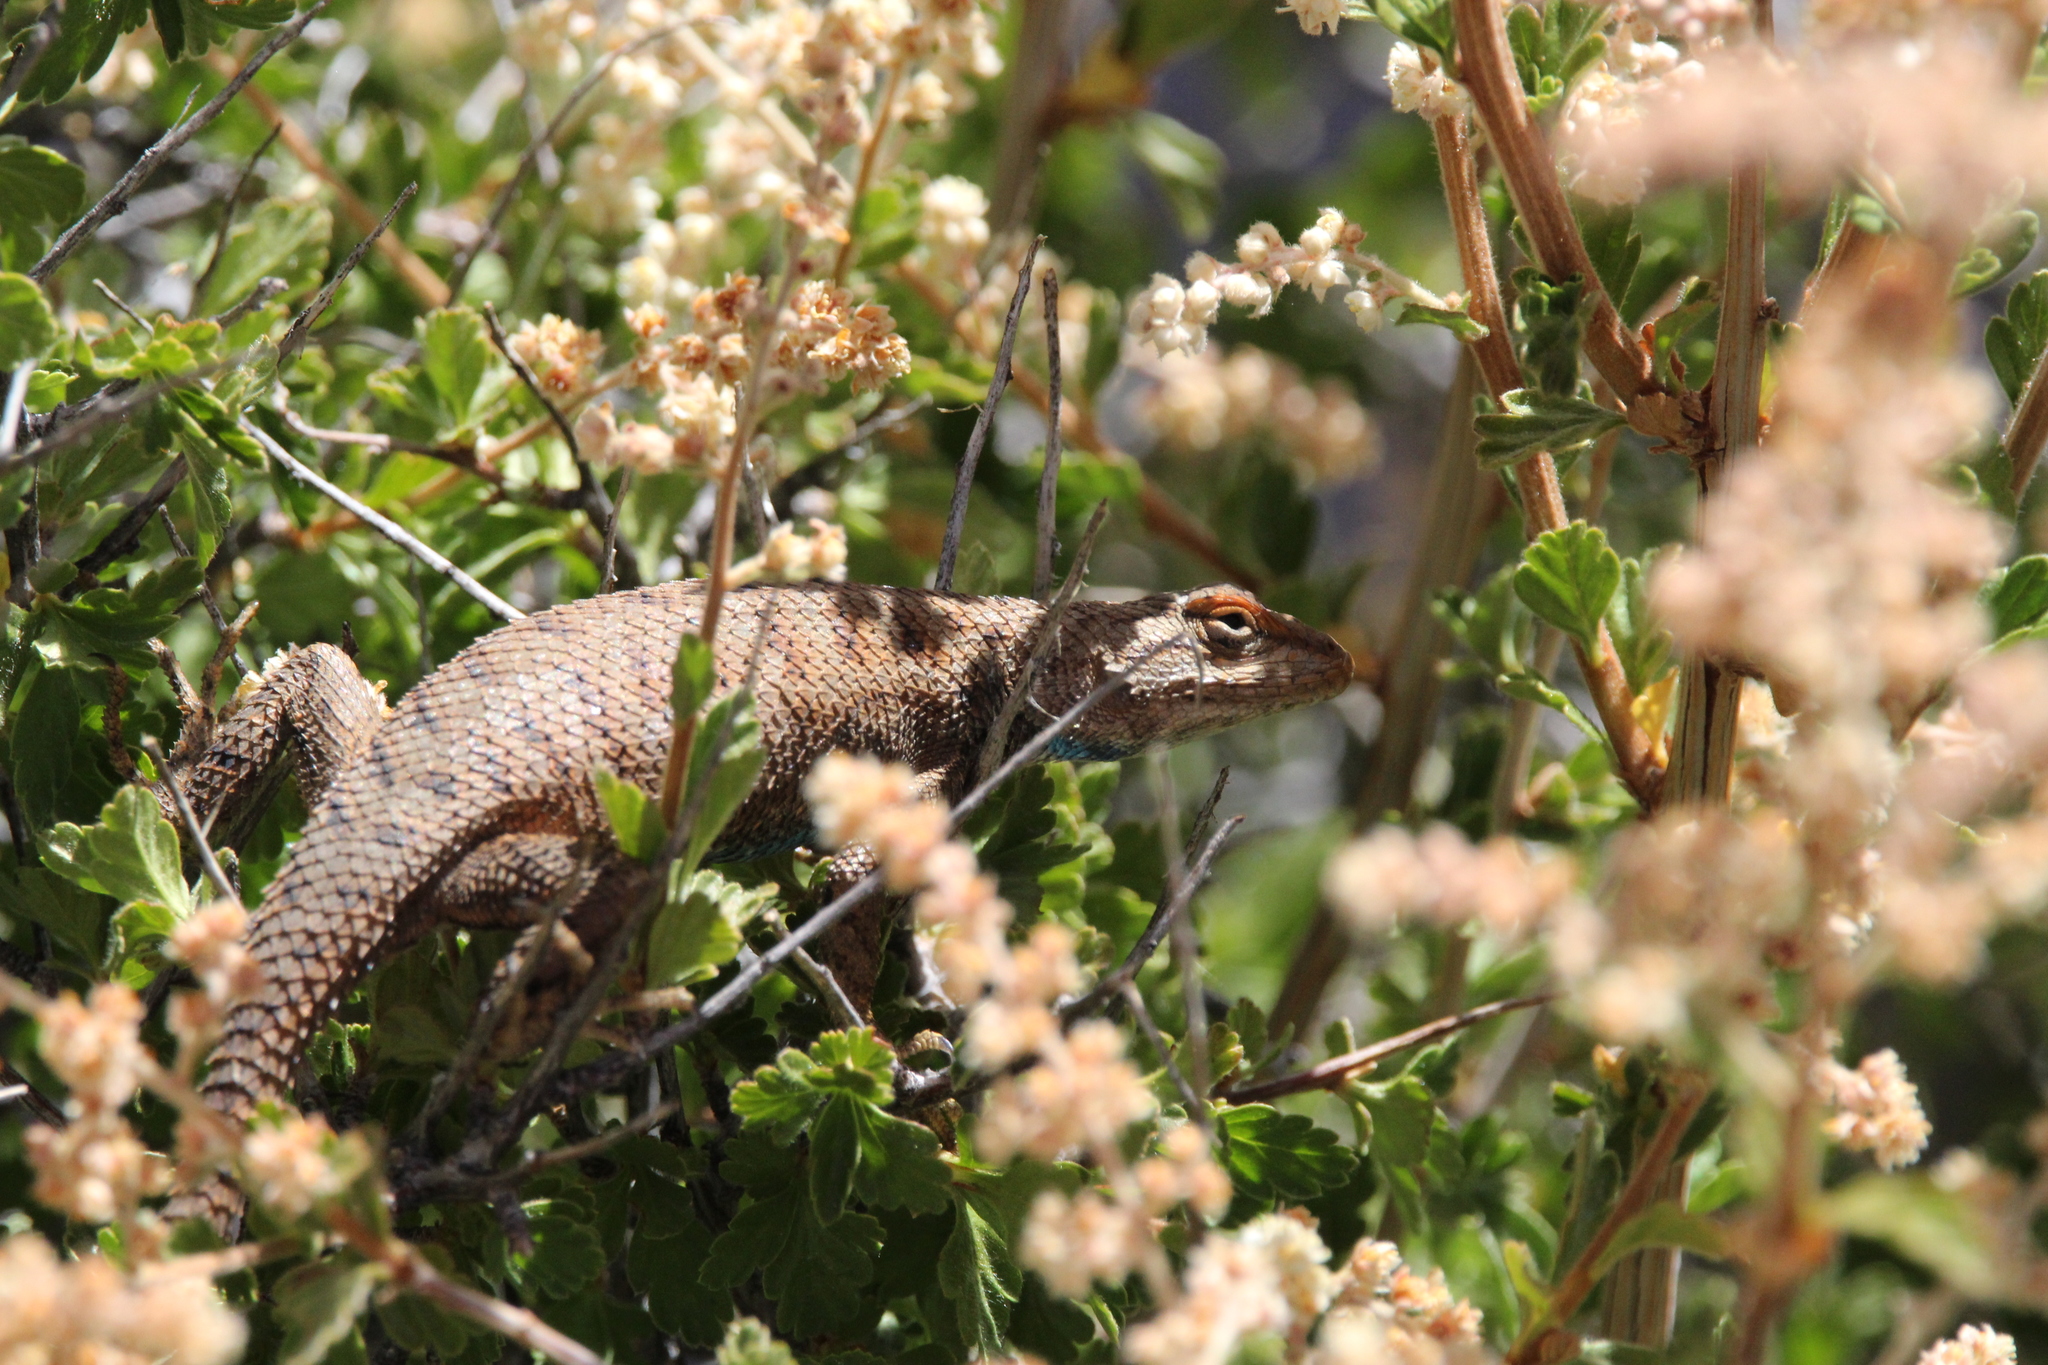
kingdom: Animalia
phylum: Chordata
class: Squamata
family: Phrynosomatidae
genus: Sceloporus
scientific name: Sceloporus magister
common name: Desert spiny lizard
